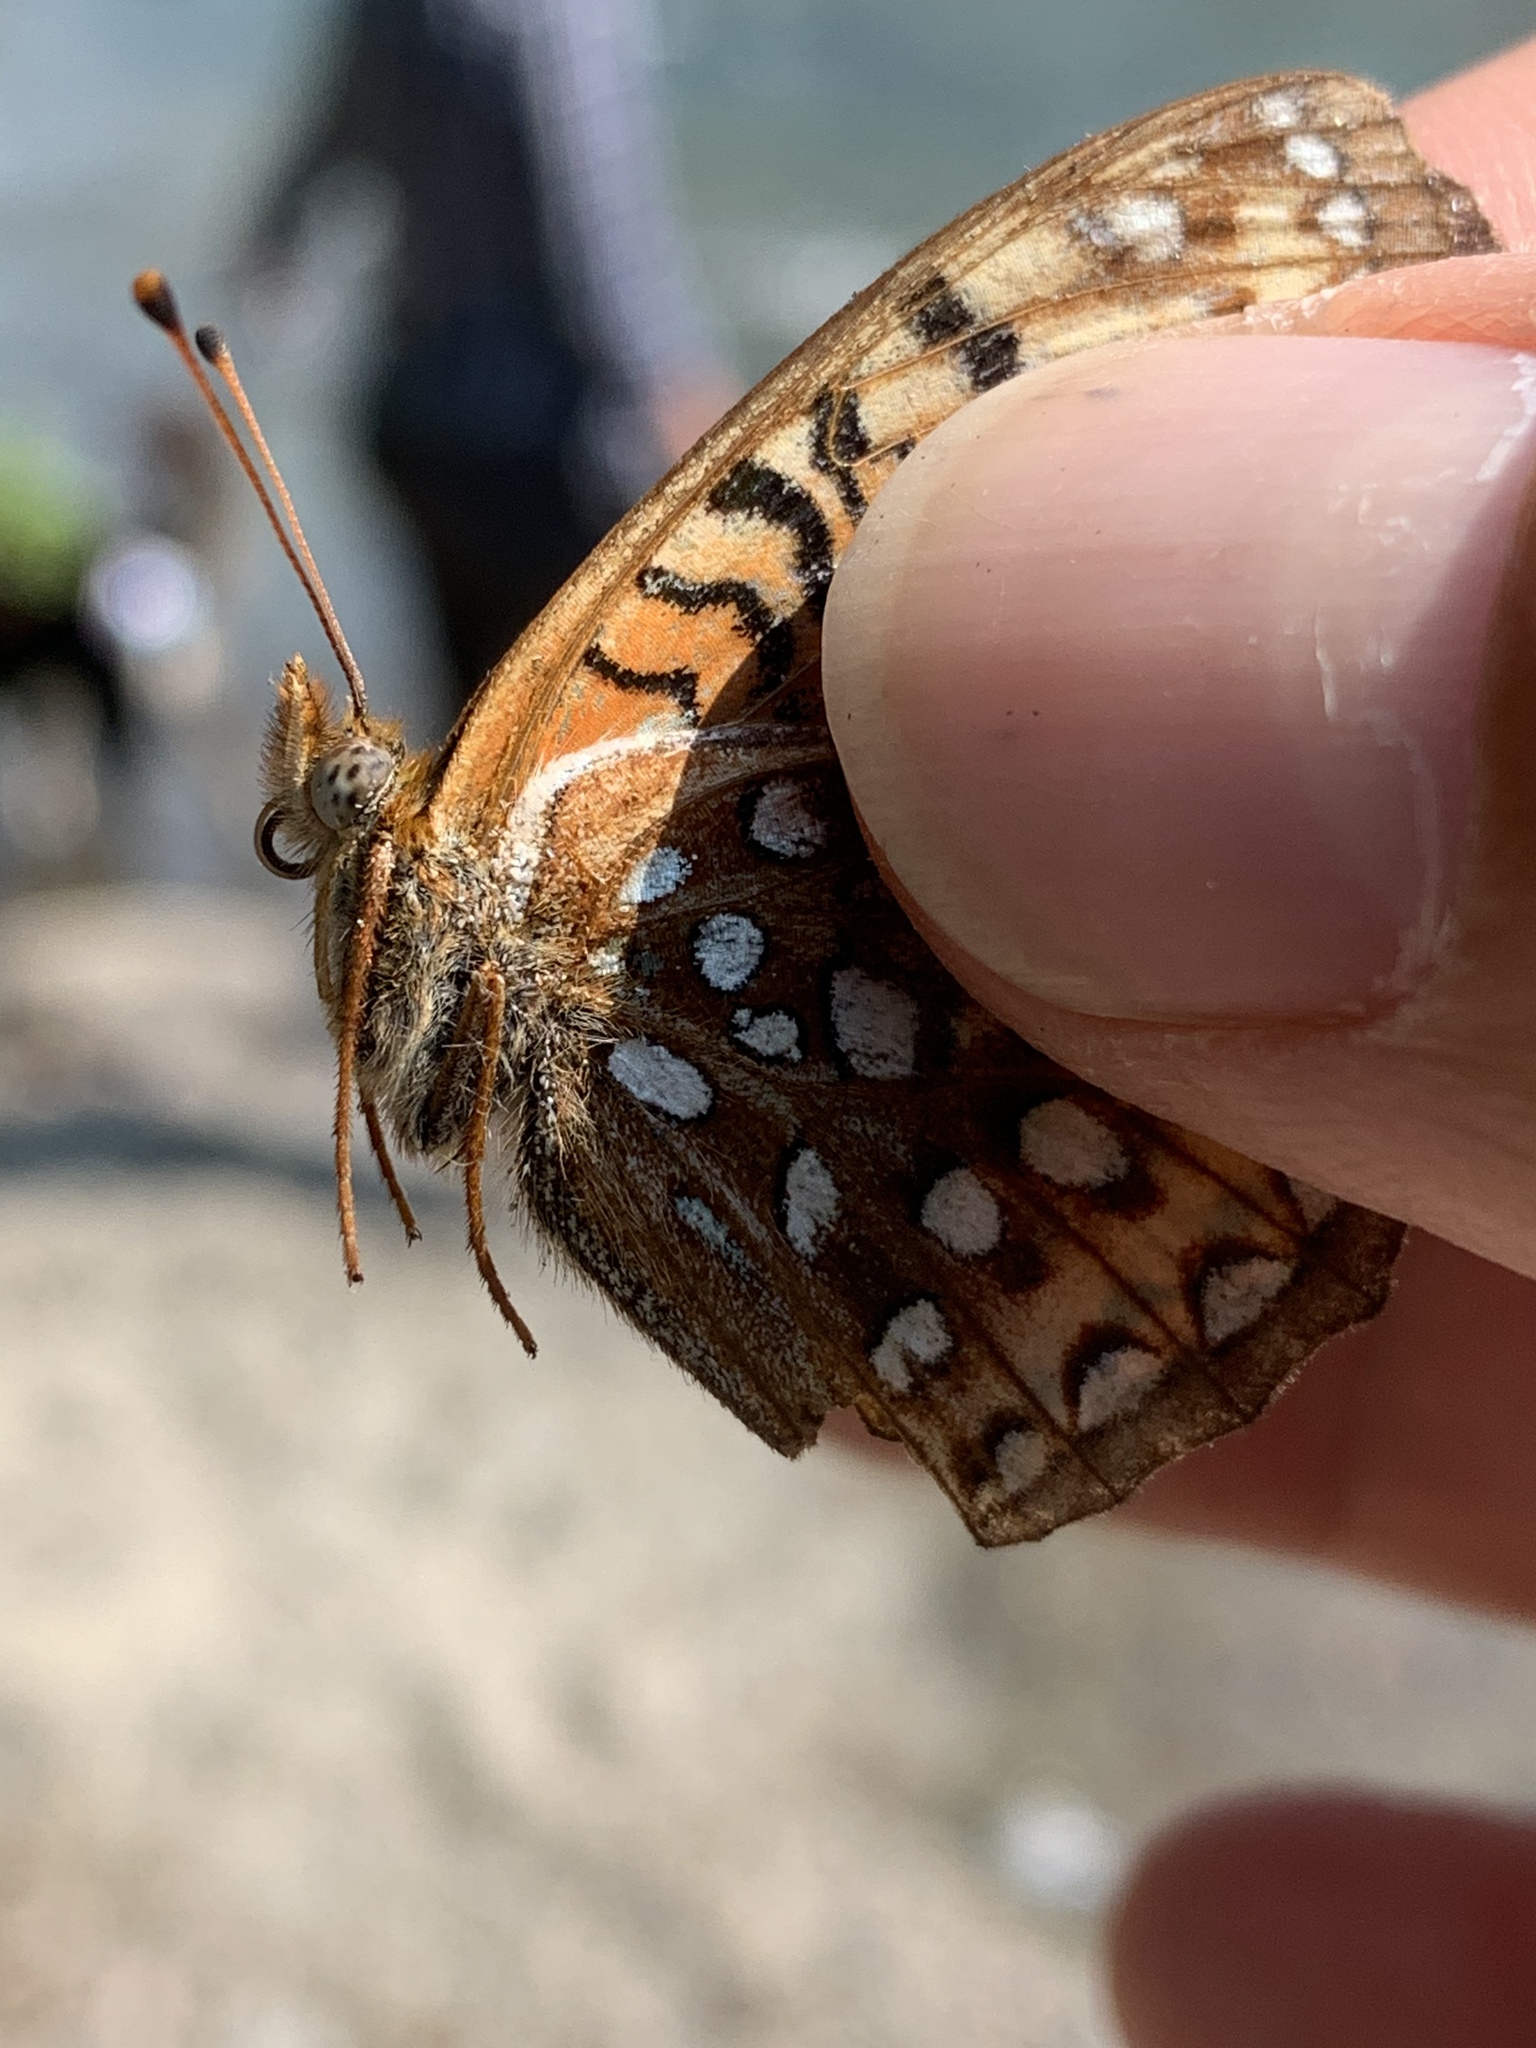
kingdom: Animalia
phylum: Arthropoda
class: Insecta
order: Lepidoptera
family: Nymphalidae
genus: Speyeria
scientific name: Speyeria atlantis
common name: Atlantis fritillary
